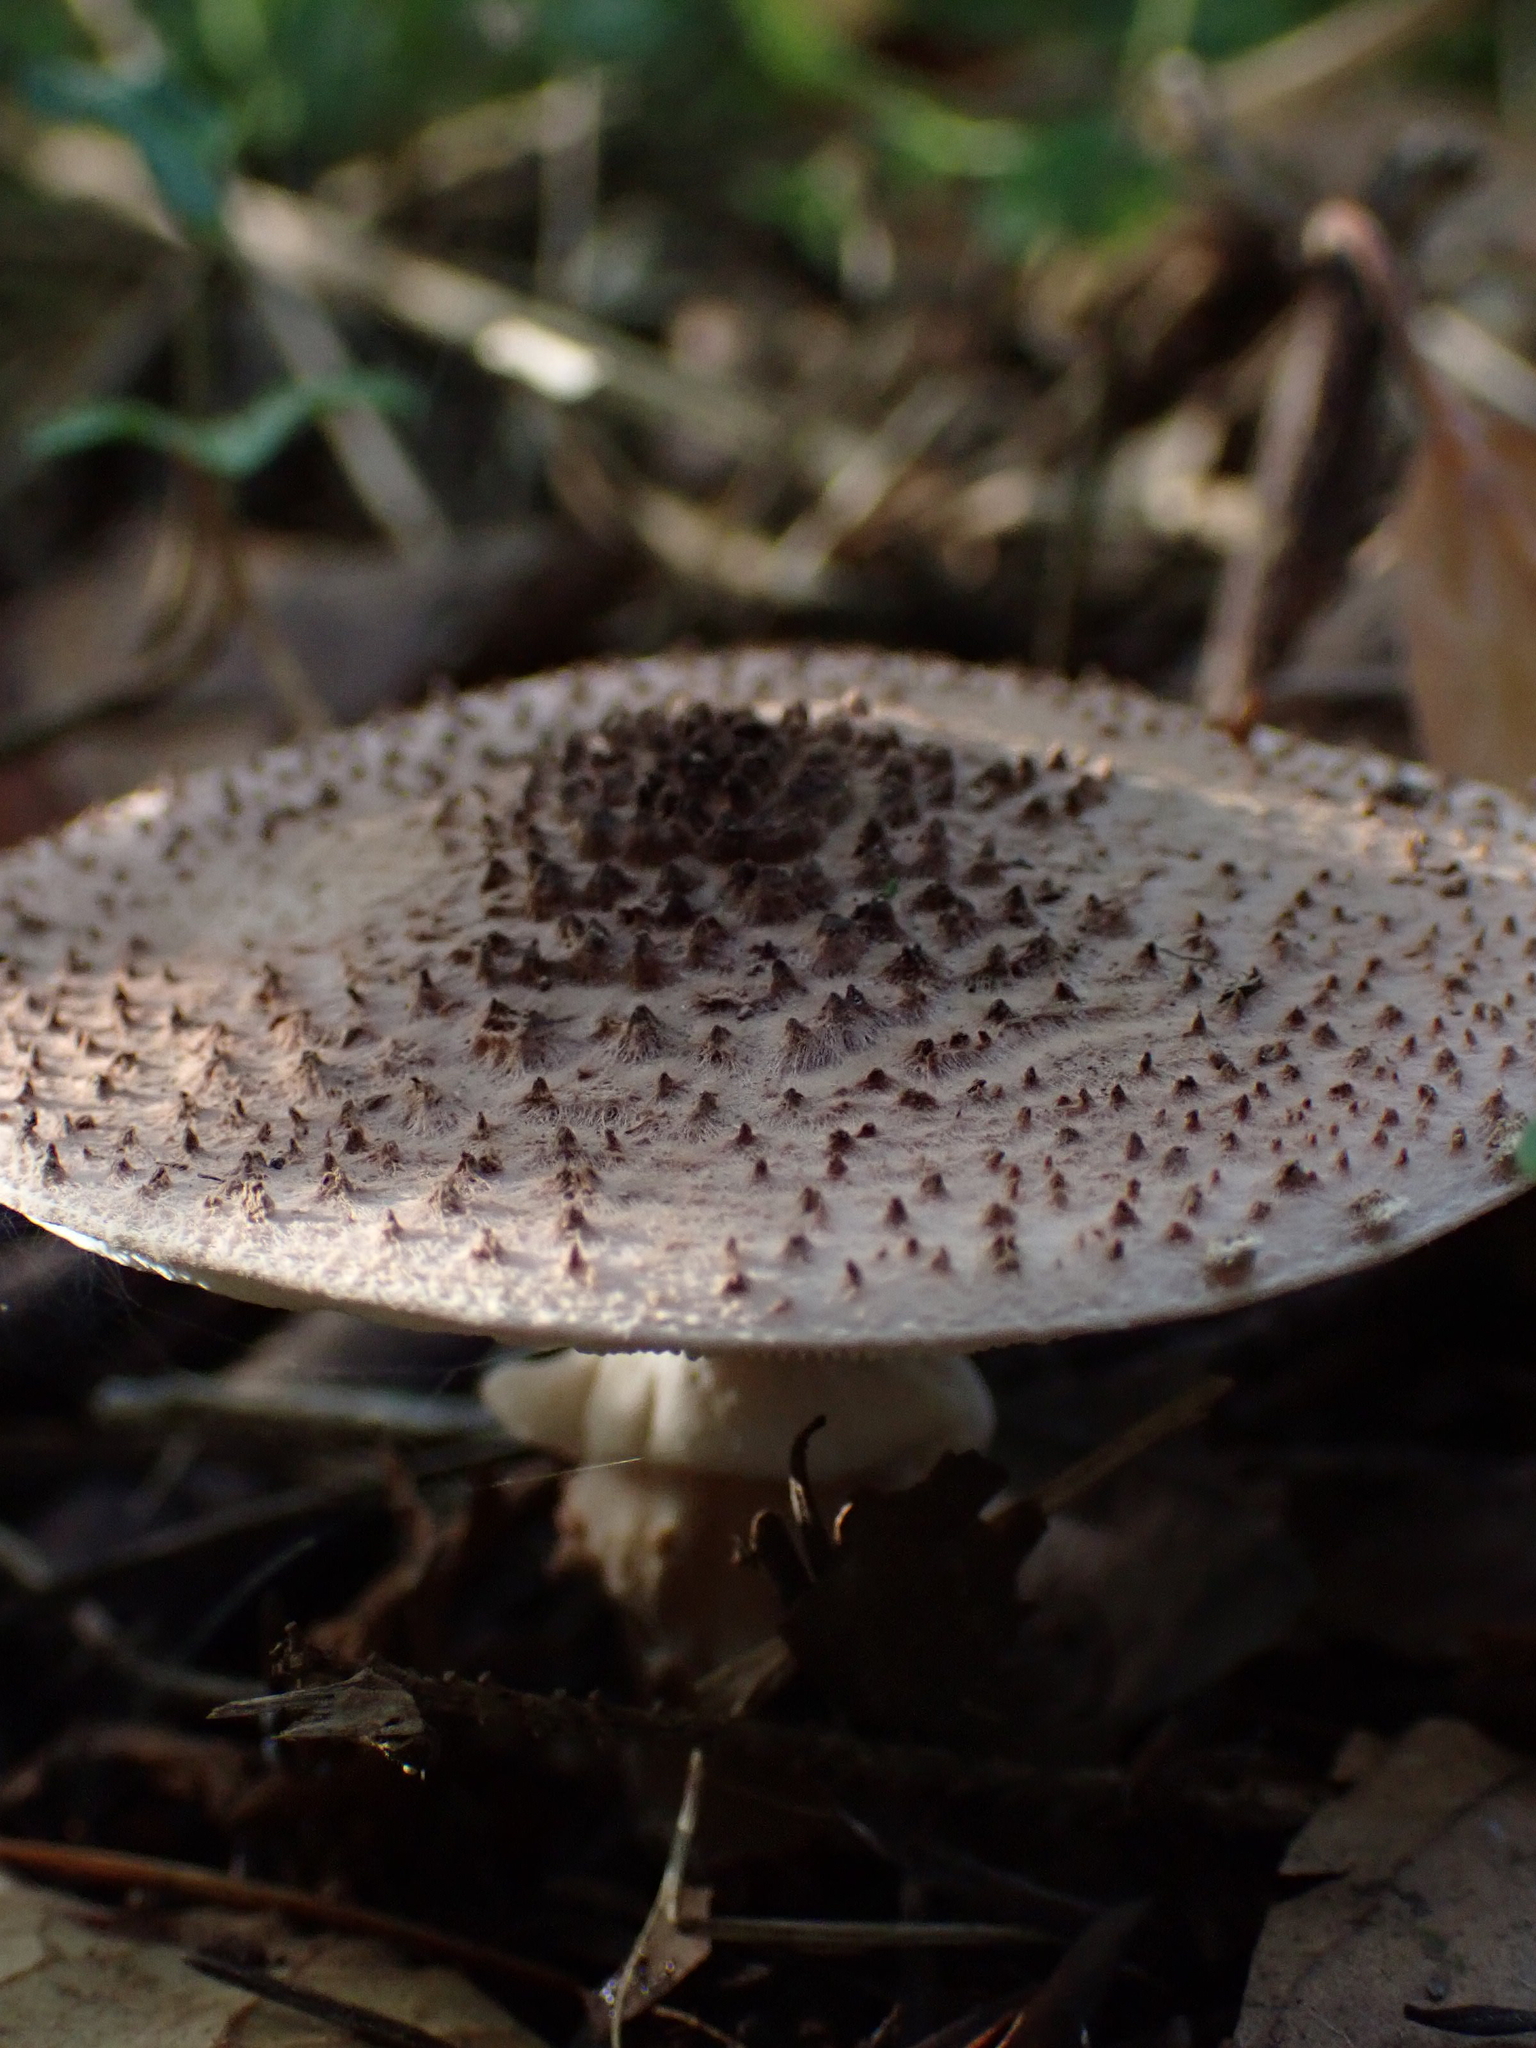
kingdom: Fungi
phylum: Basidiomycota
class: Agaricomycetes
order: Agaricales
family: Agaricaceae
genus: Echinoderma
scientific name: Echinoderma asperum
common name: Freckled dapperling
